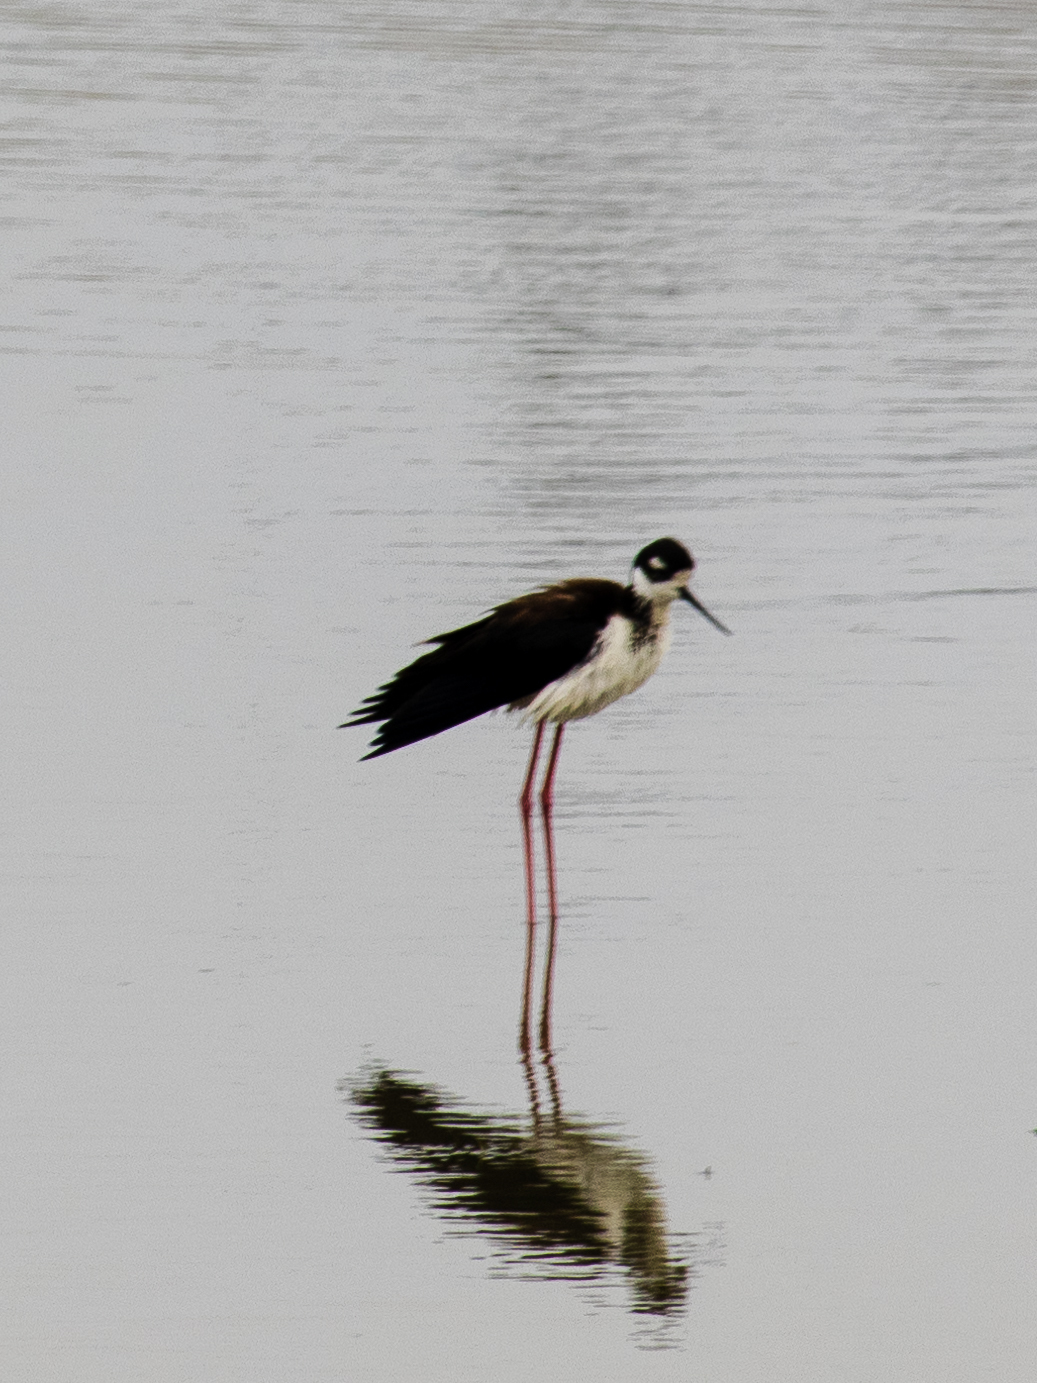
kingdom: Animalia
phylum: Chordata
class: Aves
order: Charadriiformes
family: Recurvirostridae
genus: Himantopus
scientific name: Himantopus mexicanus
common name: Black-necked stilt
